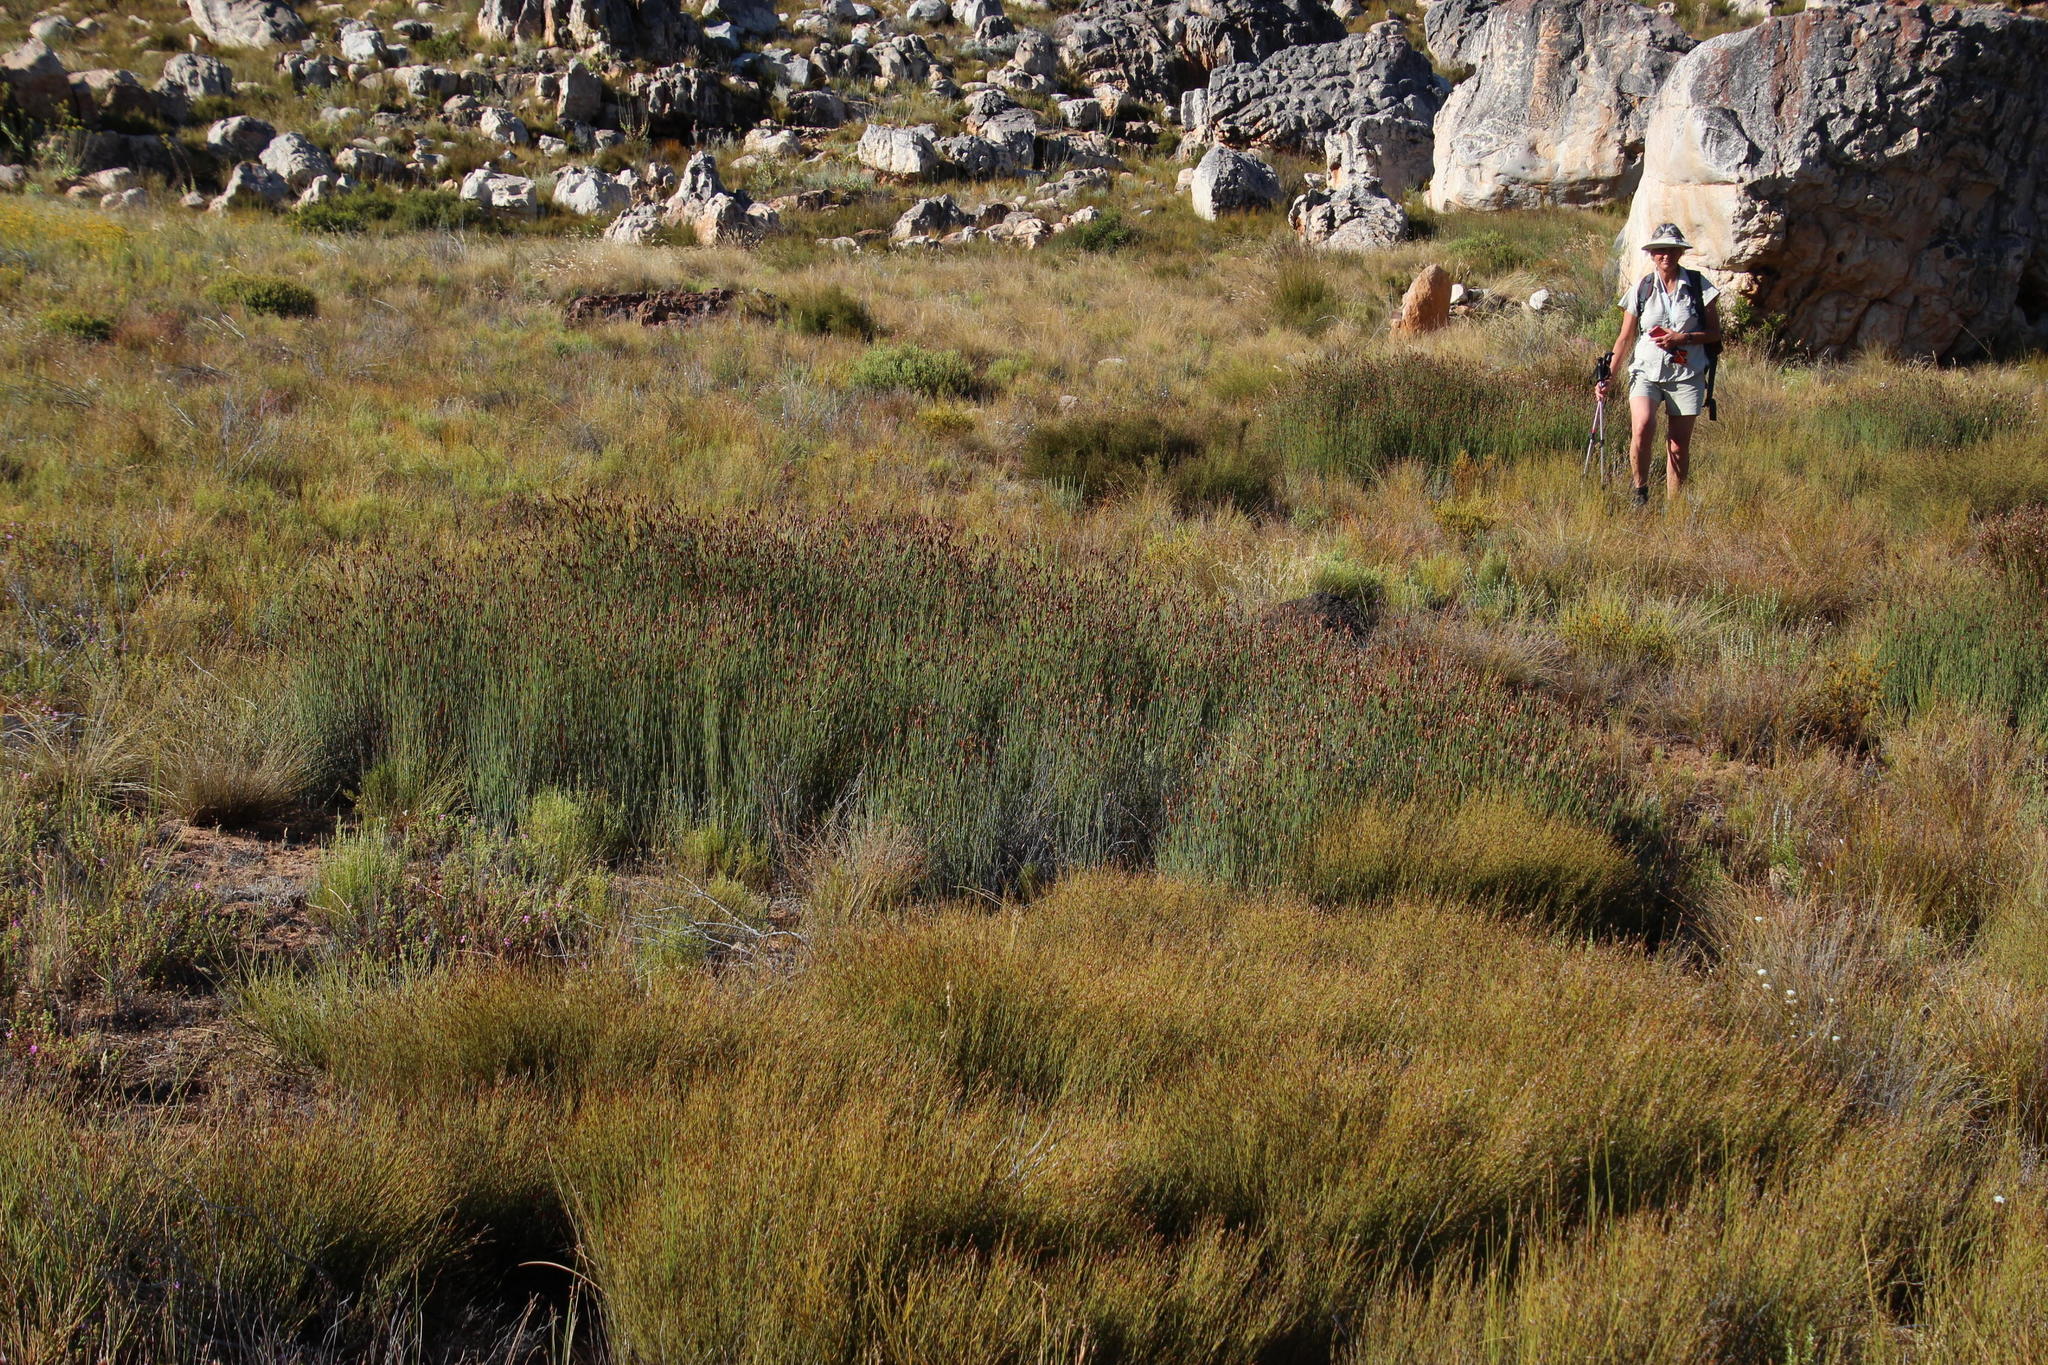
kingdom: Plantae
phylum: Tracheophyta
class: Liliopsida
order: Poales
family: Restionaceae
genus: Willdenowia
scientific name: Willdenowia teres
